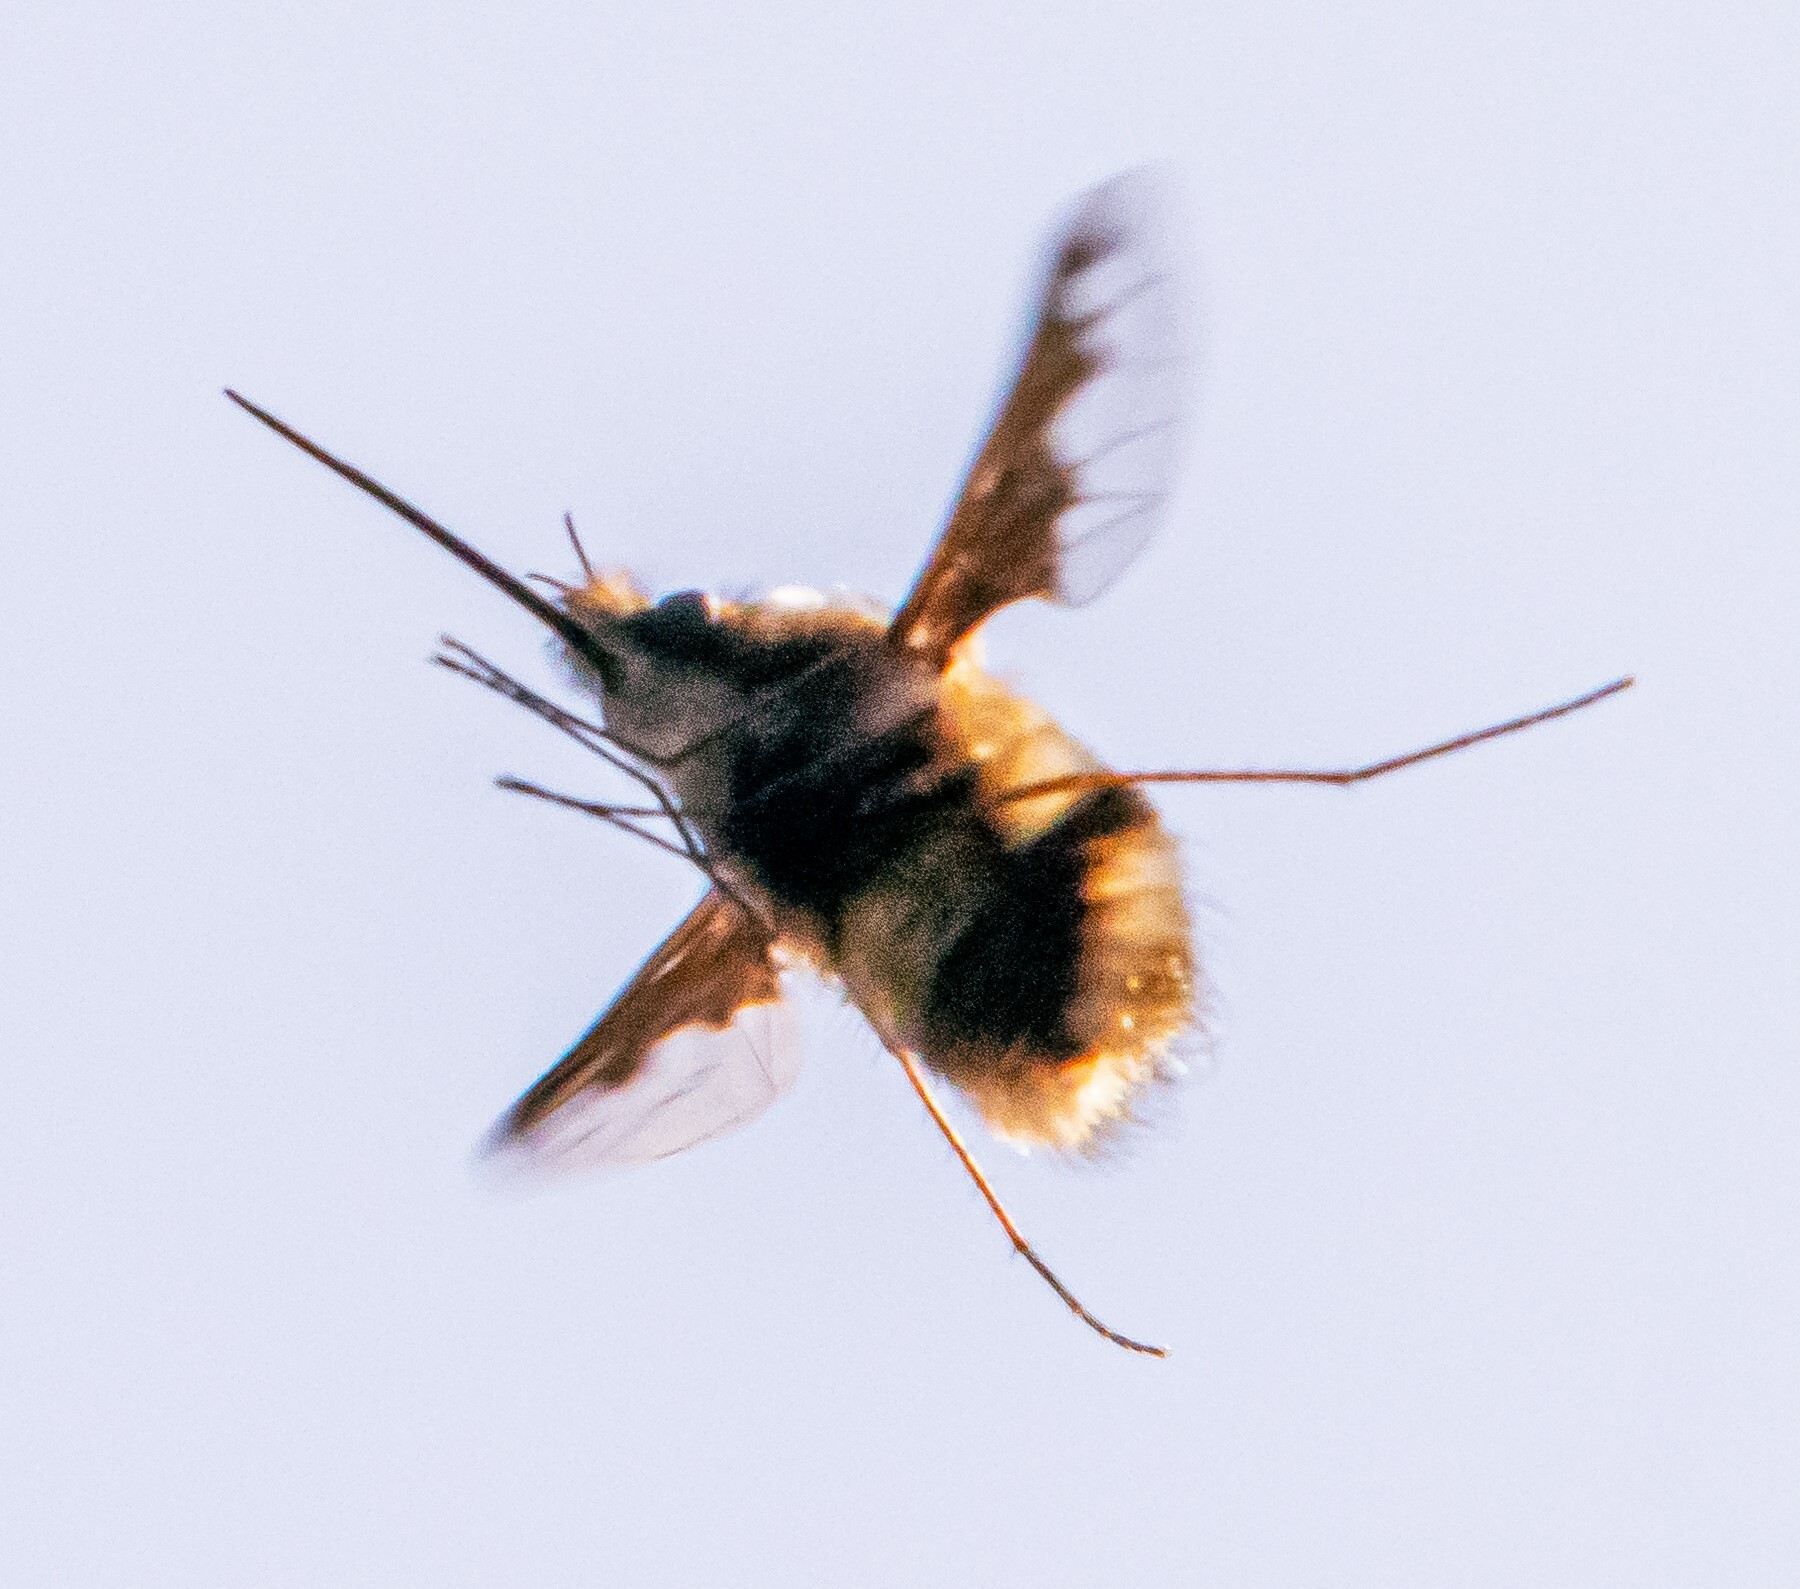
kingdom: Animalia
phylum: Arthropoda
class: Insecta
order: Diptera
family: Bombyliidae
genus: Bombylius
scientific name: Bombylius major
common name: Bee fly
